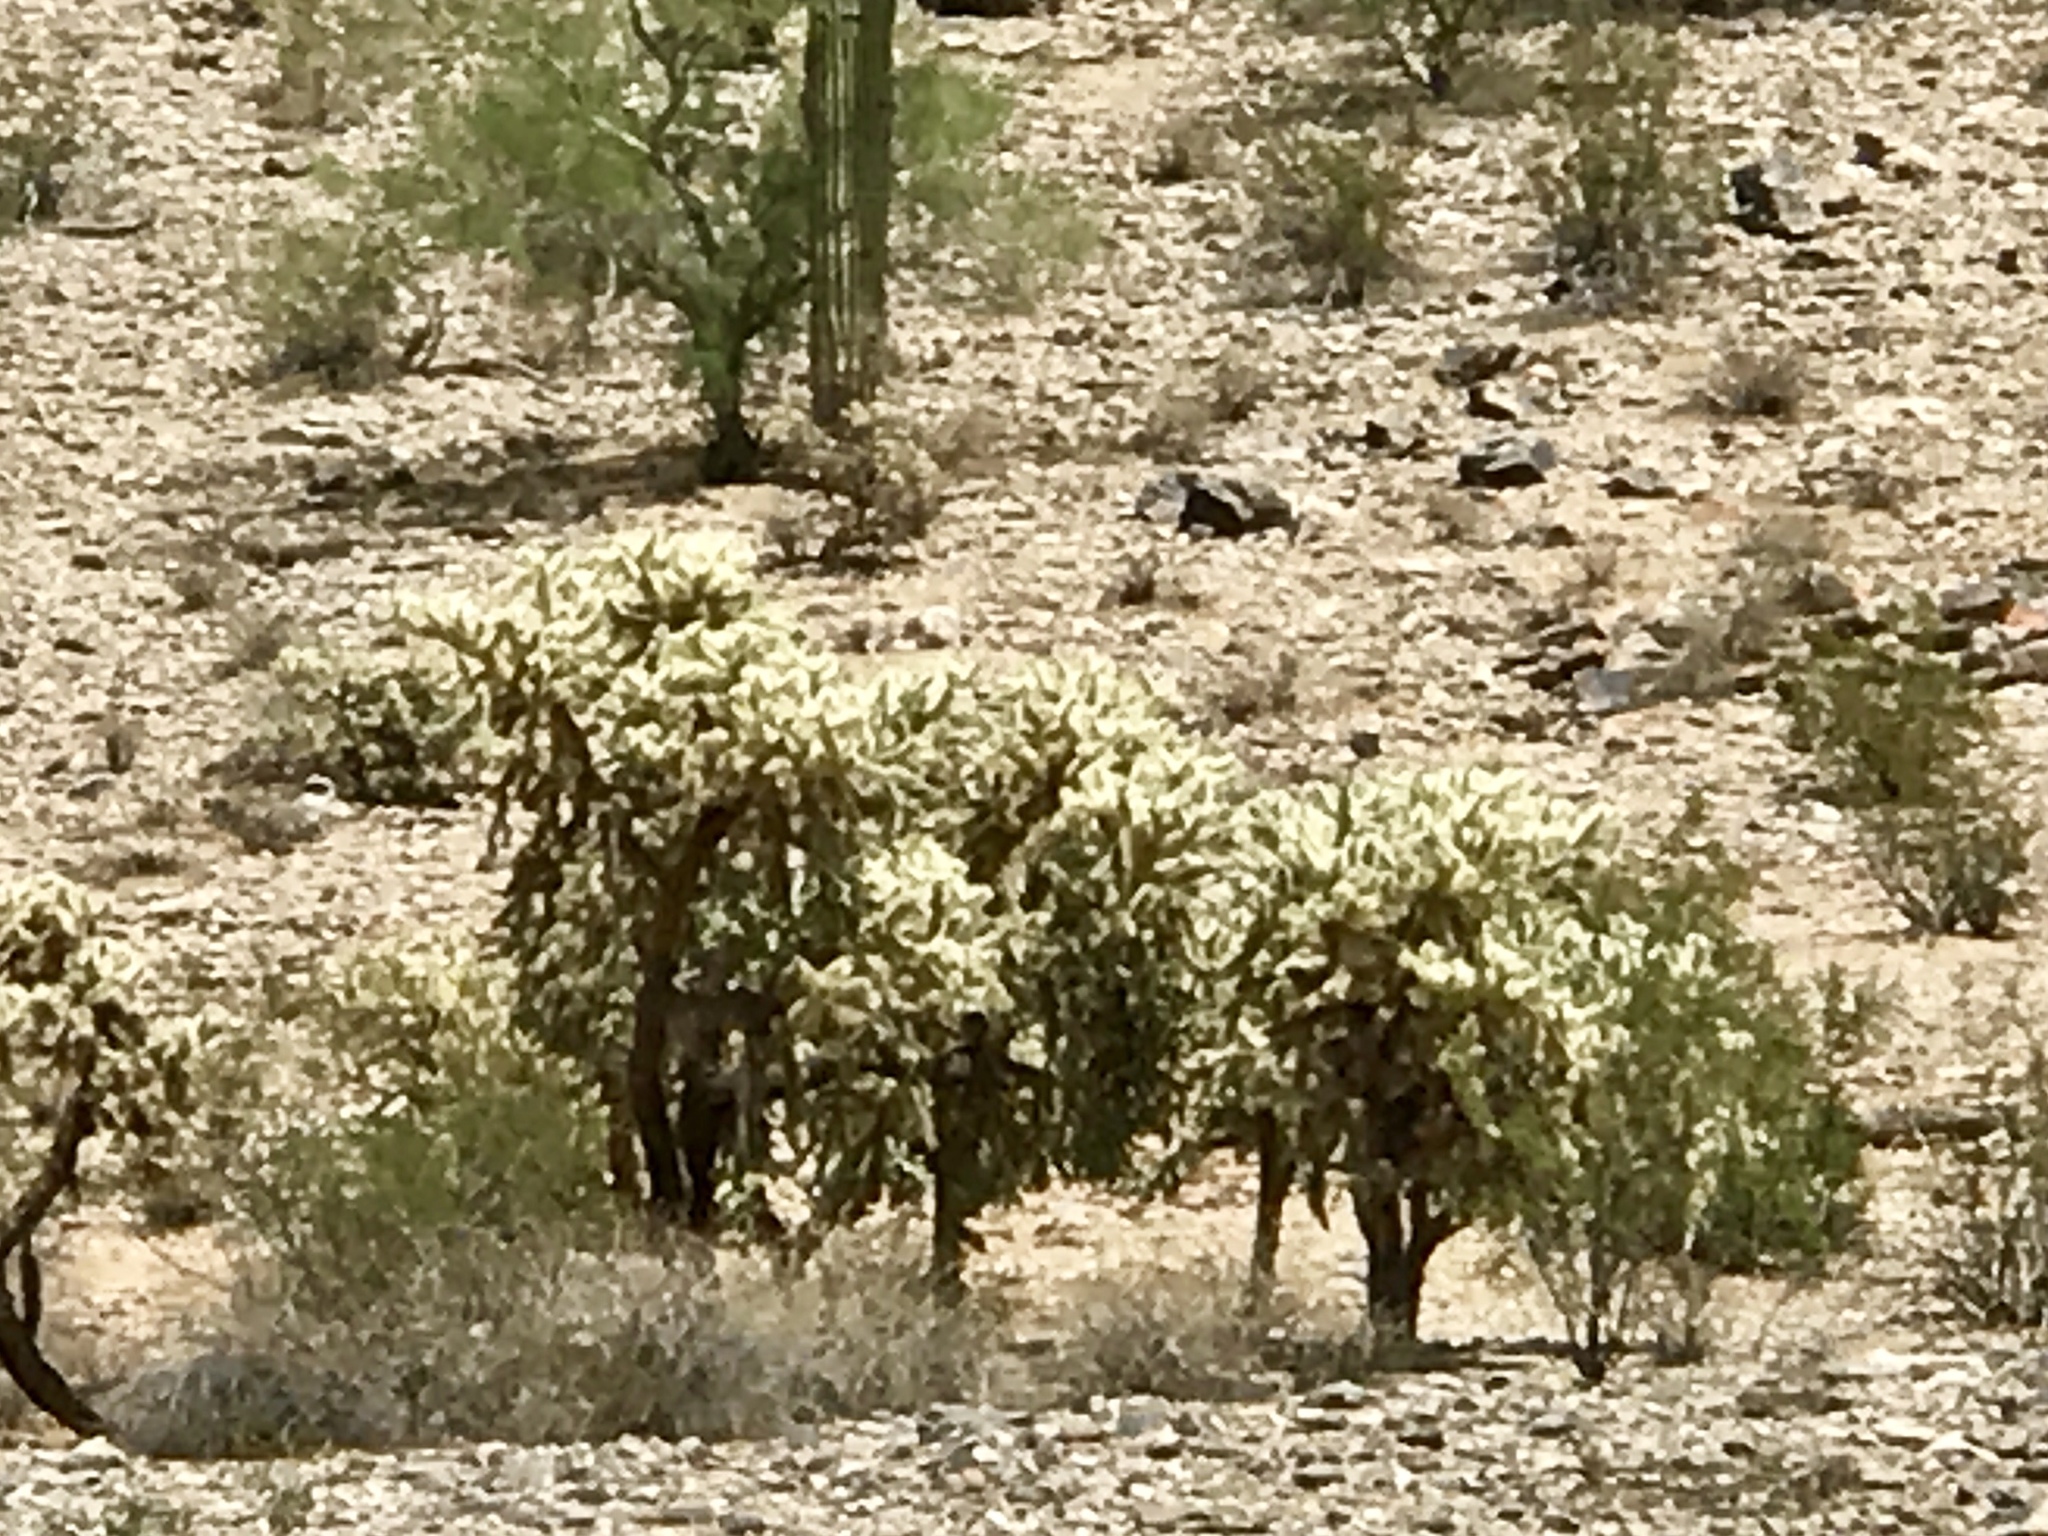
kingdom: Plantae
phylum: Tracheophyta
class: Magnoliopsida
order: Caryophyllales
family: Cactaceae
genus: Cylindropuntia
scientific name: Cylindropuntia fosbergii
